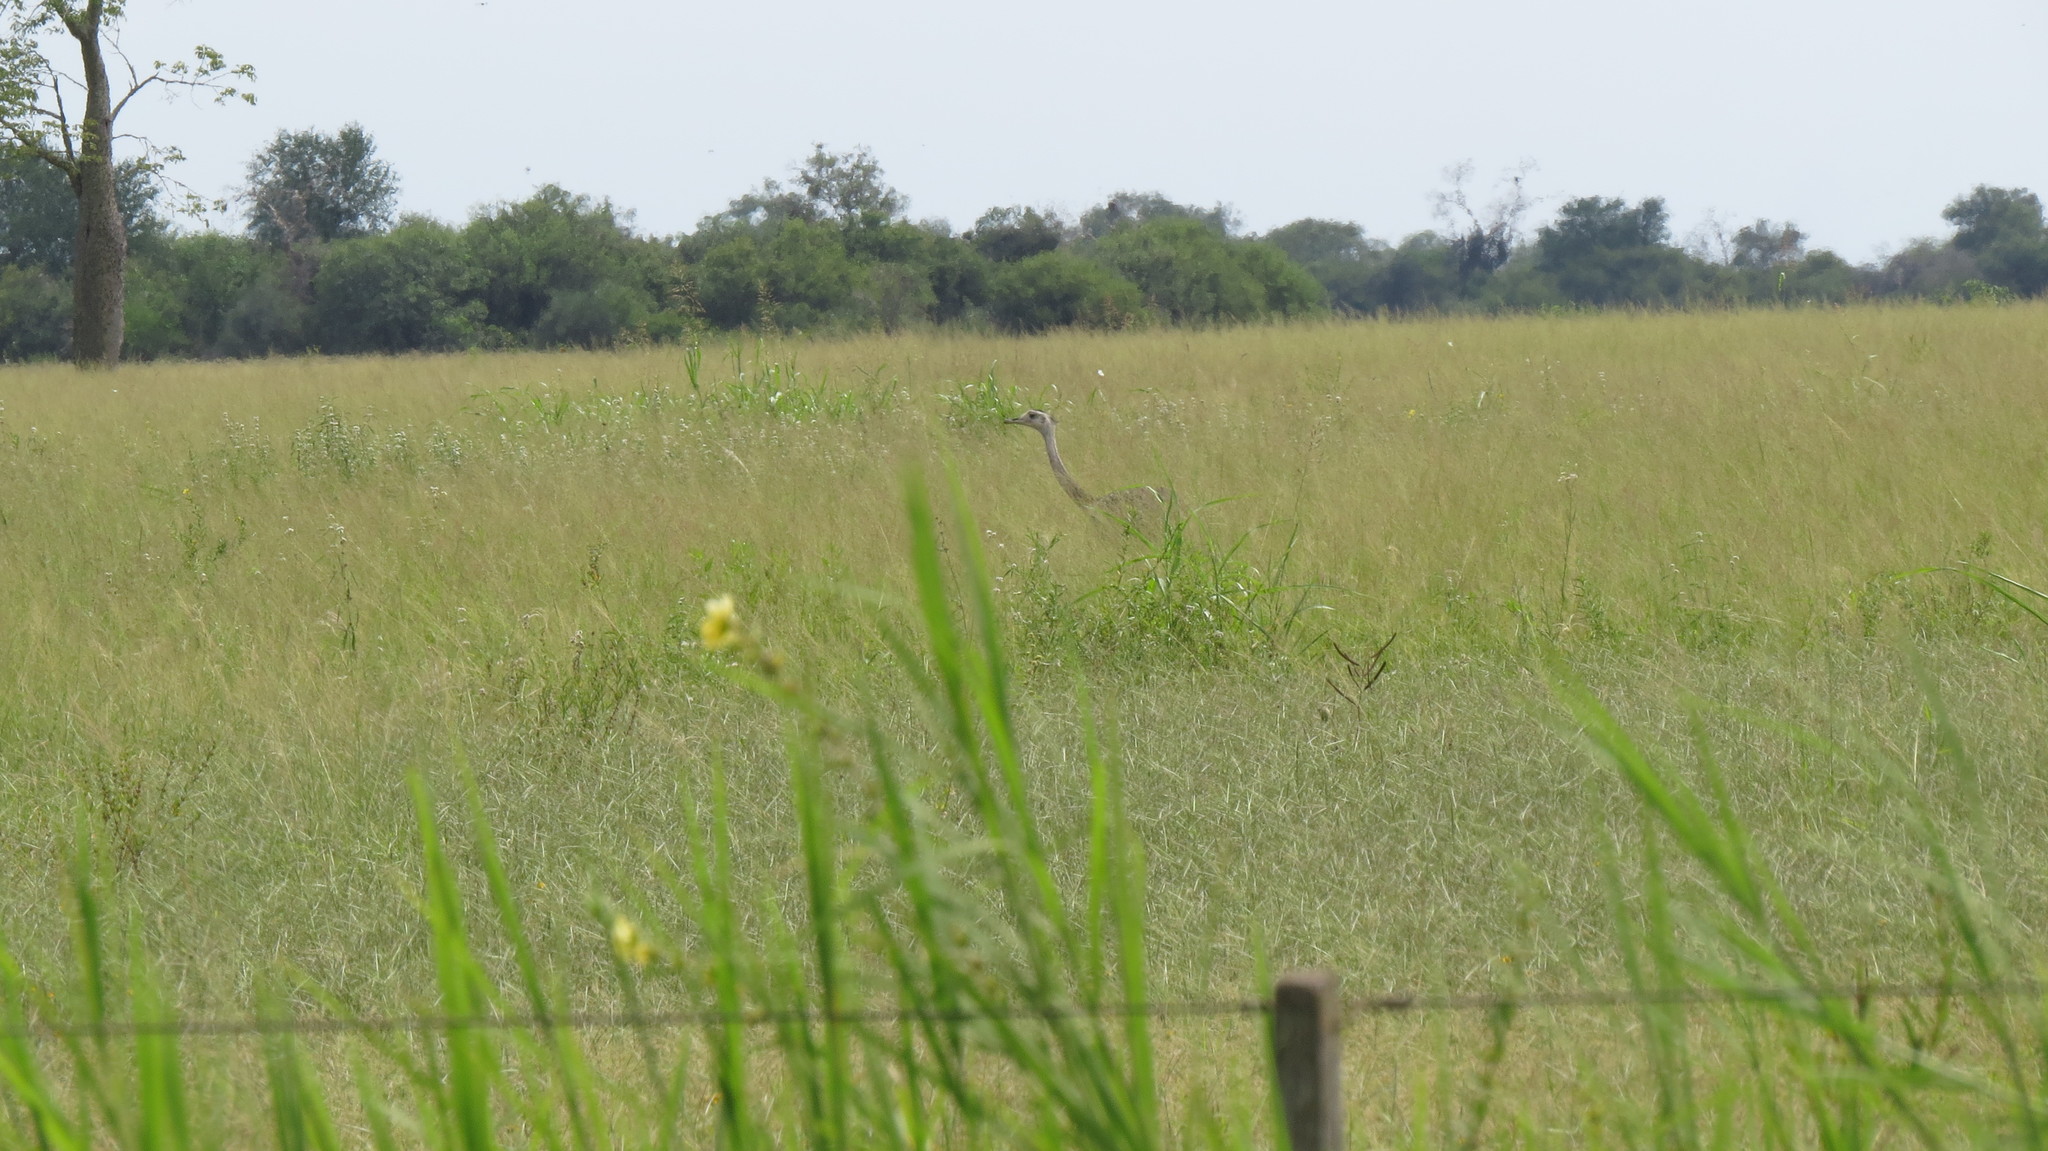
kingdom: Animalia
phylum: Chordata
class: Aves
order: Rheiformes
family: Rheidae
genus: Rhea
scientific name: Rhea americana
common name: Greater rhea
